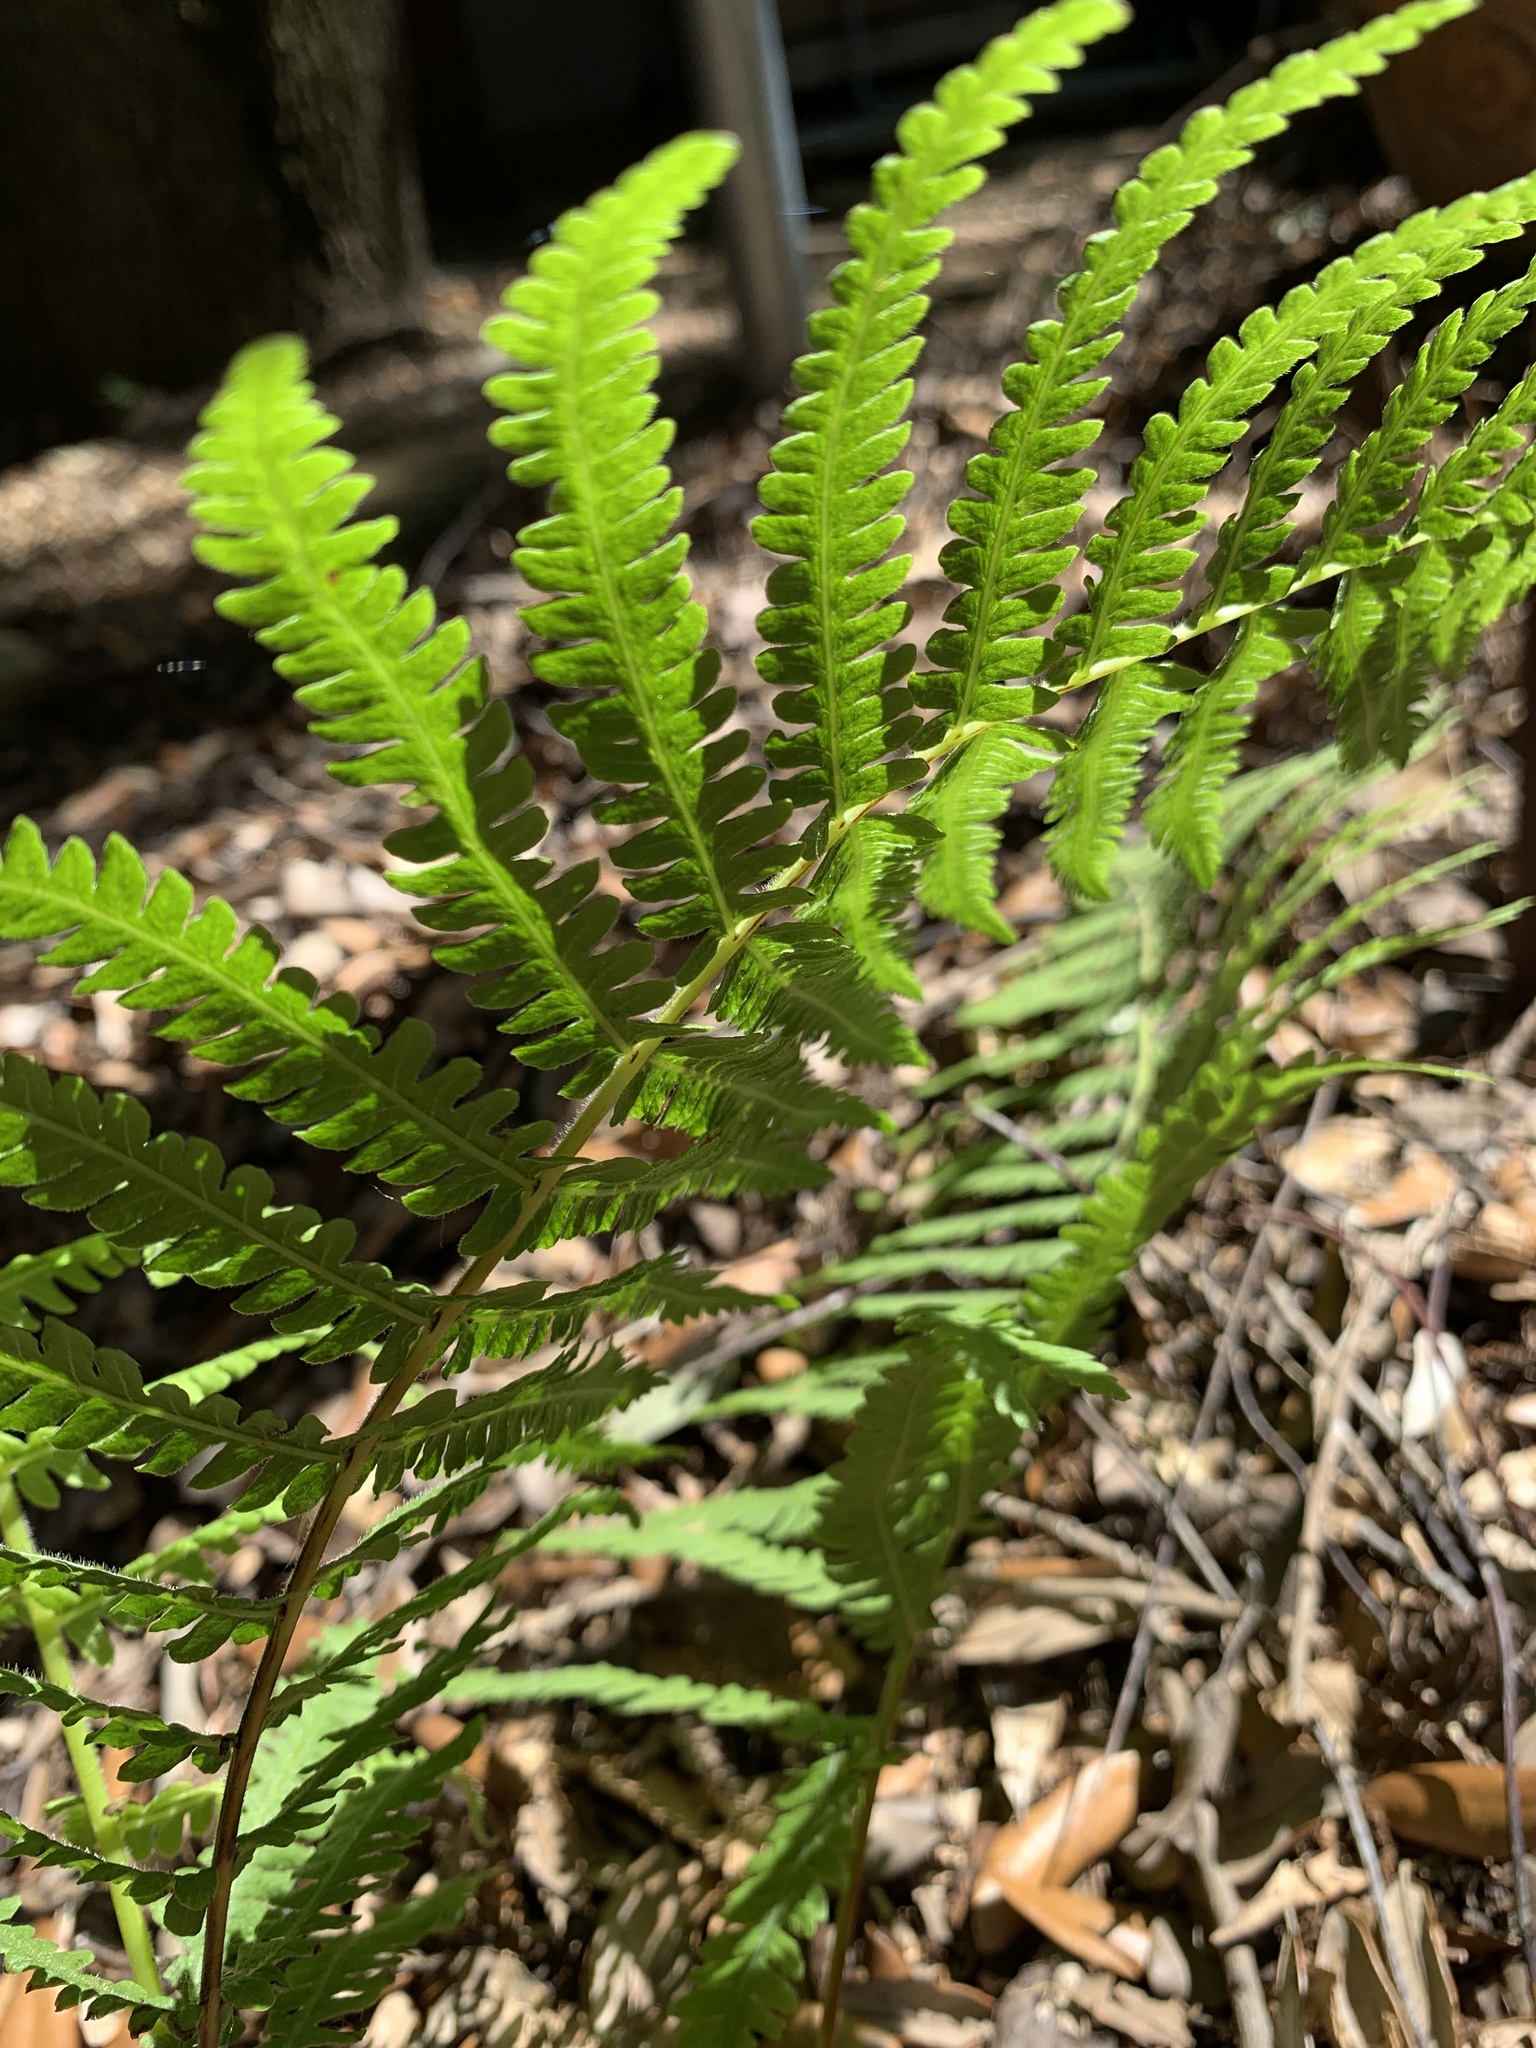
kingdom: Plantae
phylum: Tracheophyta
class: Polypodiopsida
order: Polypodiales
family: Thelypteridaceae
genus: Pelazoneuron
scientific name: Pelazoneuron ovatum
